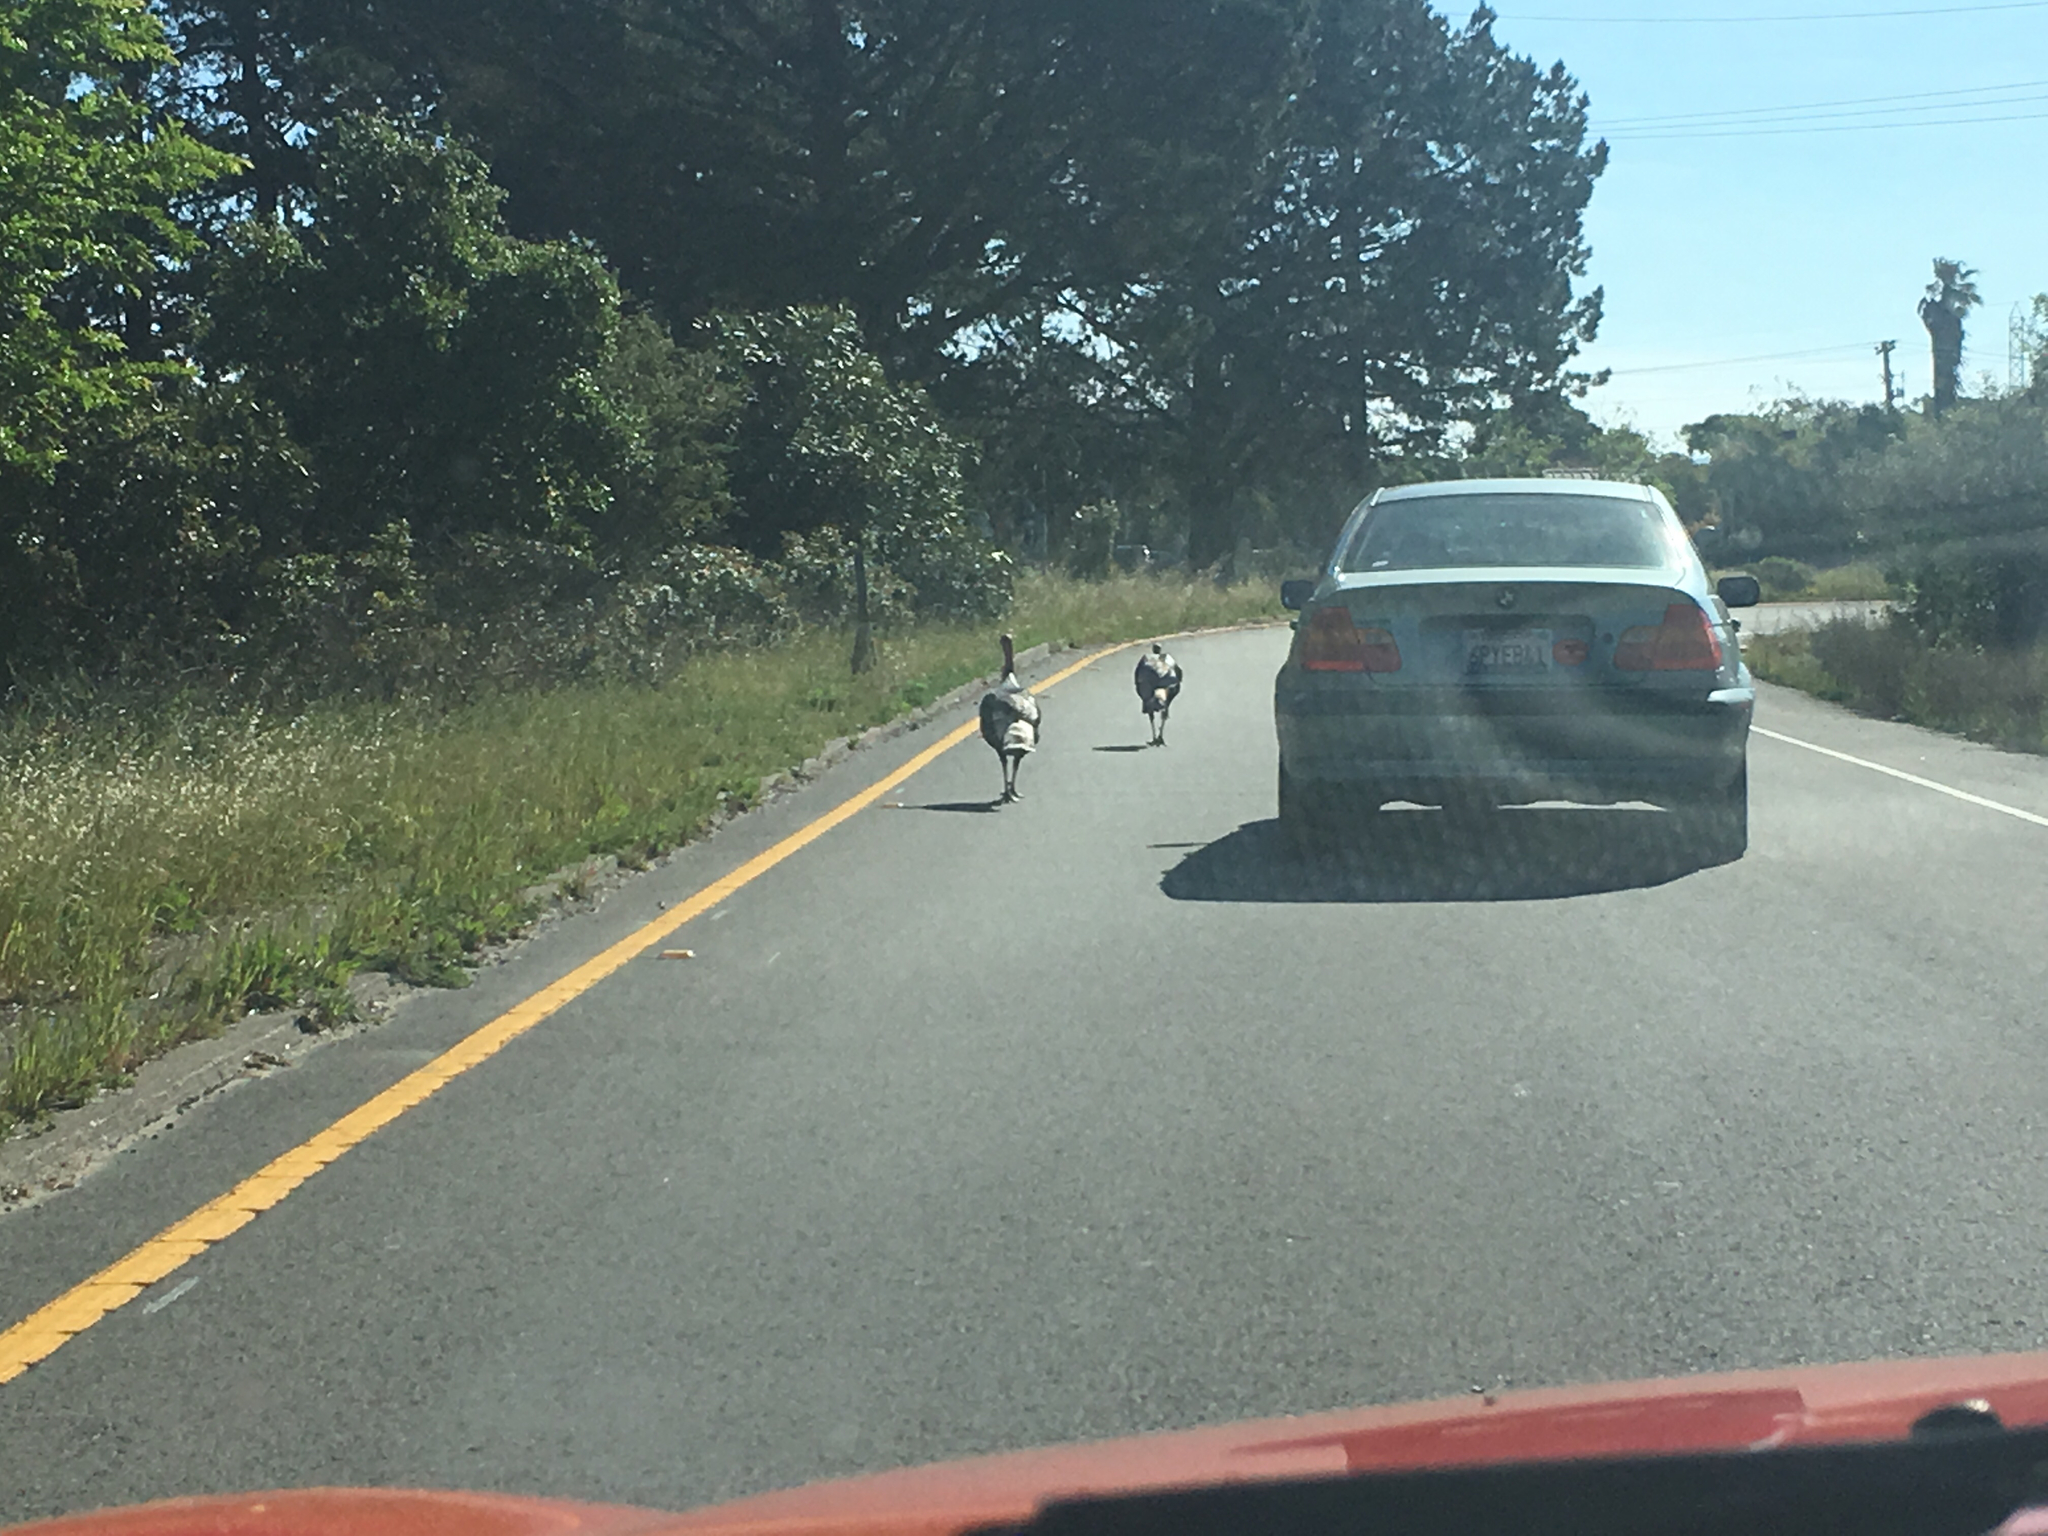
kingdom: Animalia
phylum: Chordata
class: Aves
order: Galliformes
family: Phasianidae
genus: Meleagris
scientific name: Meleagris gallopavo
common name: Wild turkey
